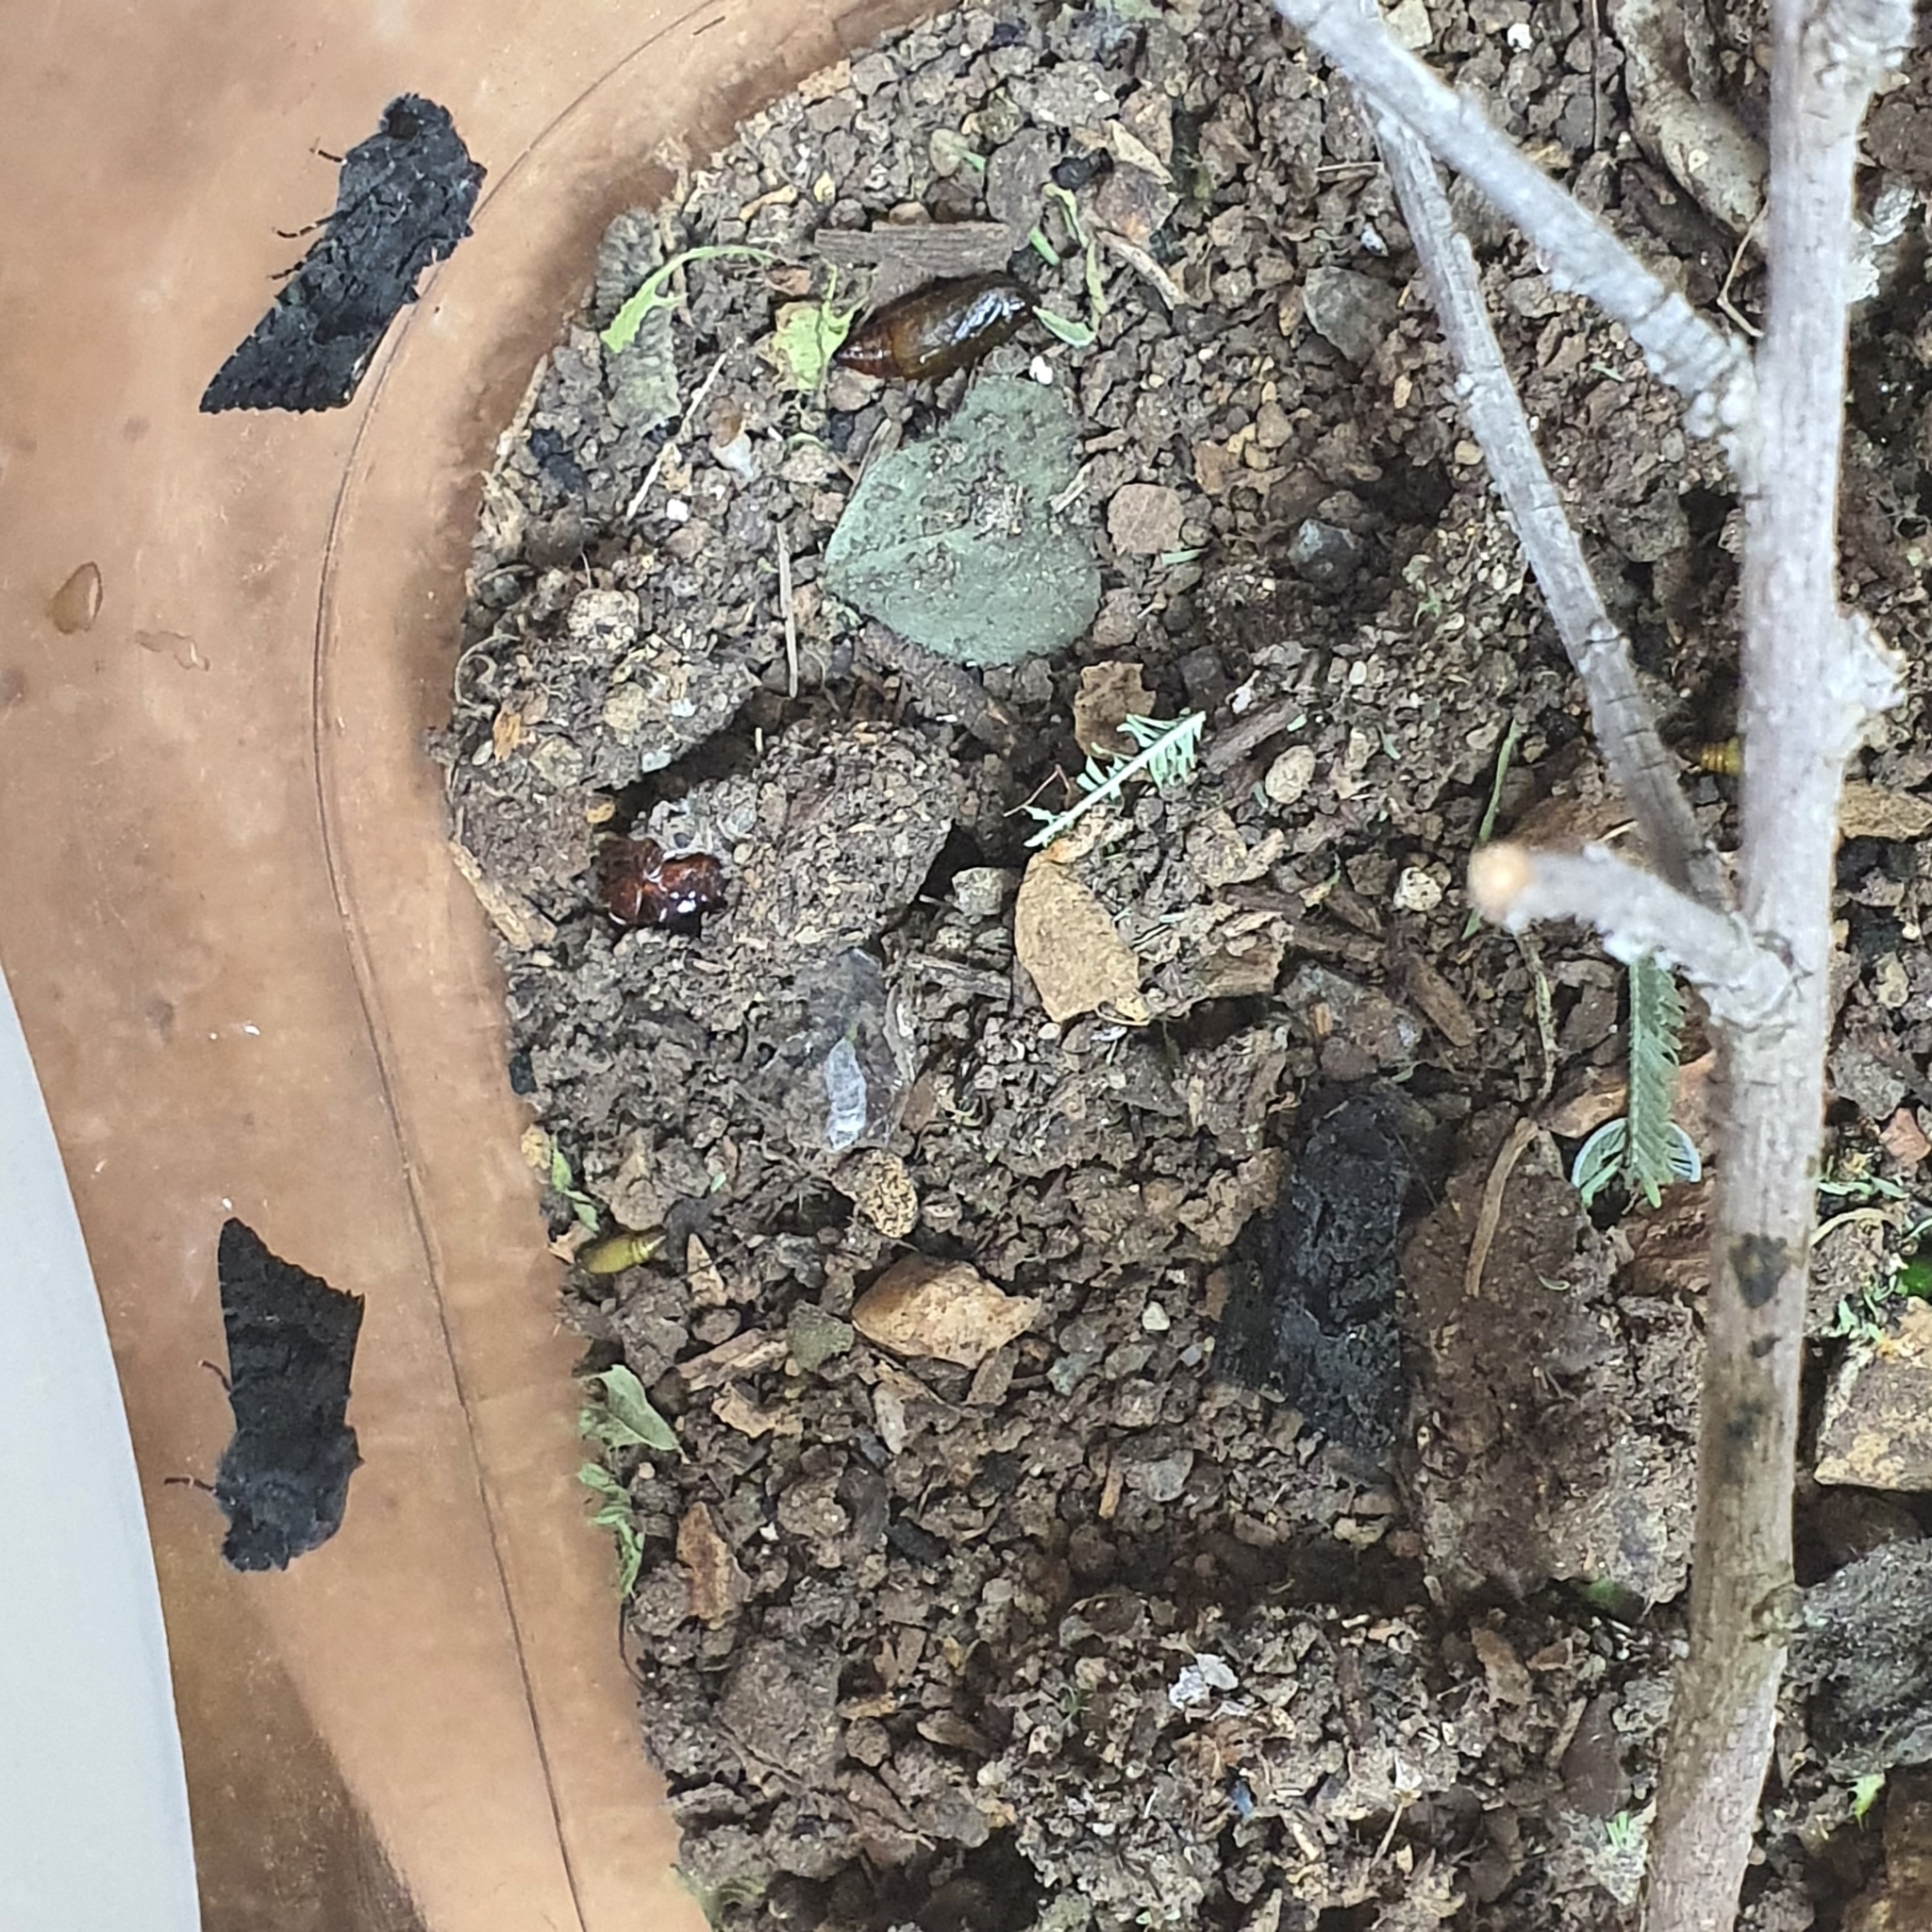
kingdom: Animalia
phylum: Arthropoda
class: Insecta
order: Lepidoptera
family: Noctuidae
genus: Neumichtis
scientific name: Neumichtis nigerrima
